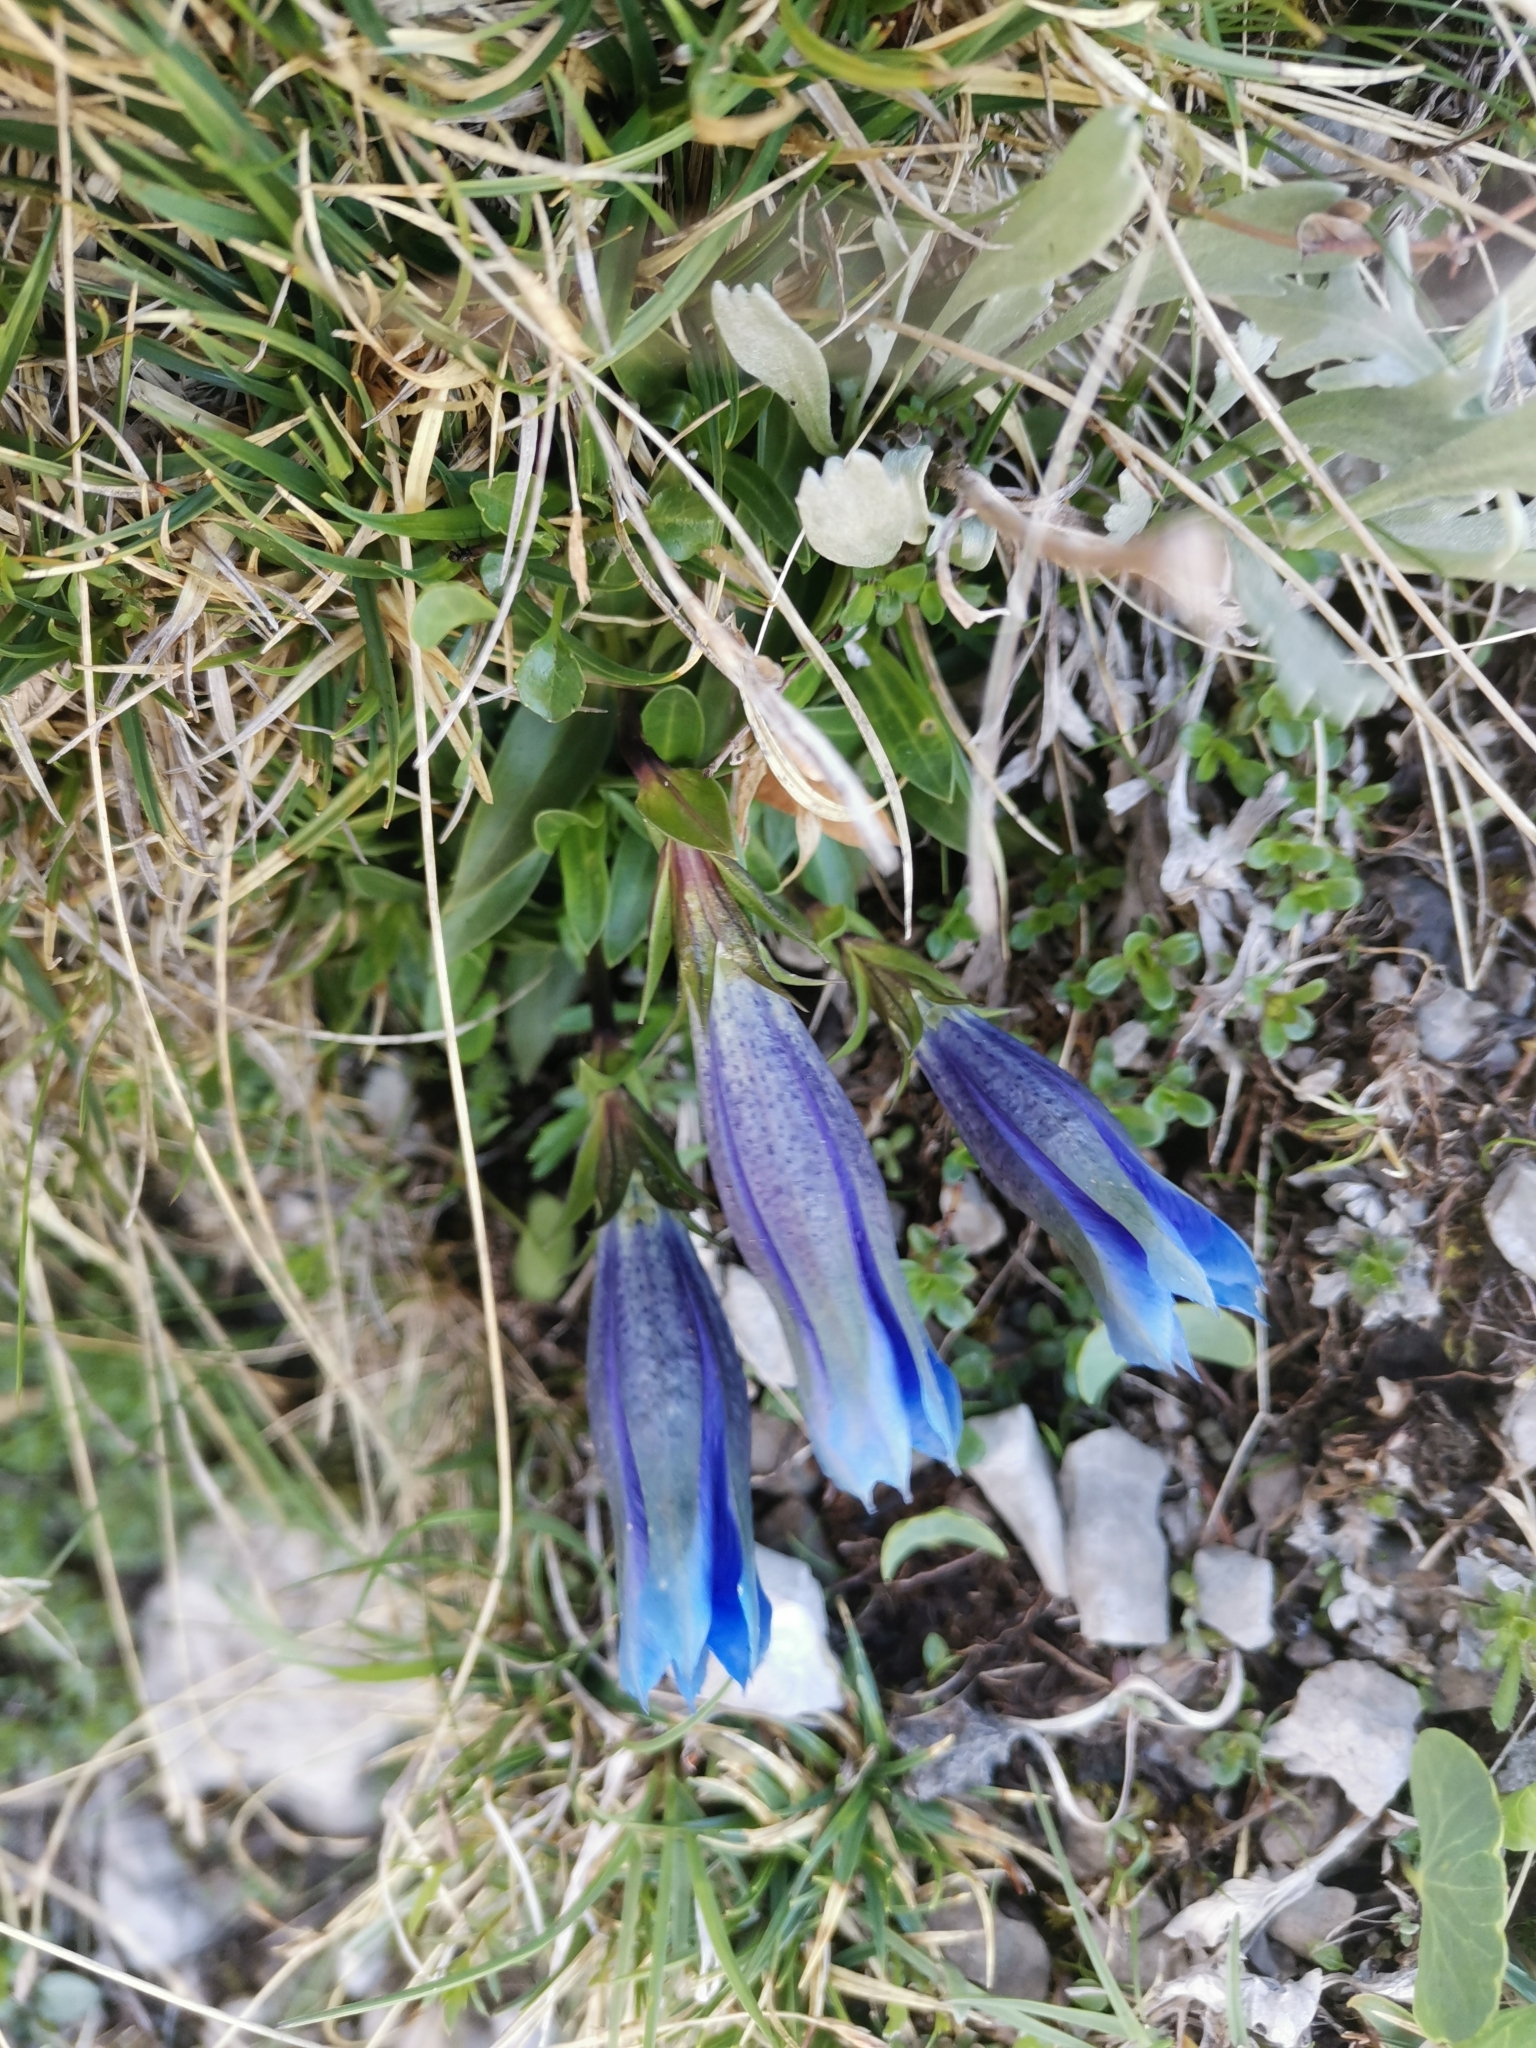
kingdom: Plantae
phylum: Tracheophyta
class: Magnoliopsida
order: Gentianales
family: Gentianaceae
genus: Gentiana
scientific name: Gentiana clusii
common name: Trumpet gentian
